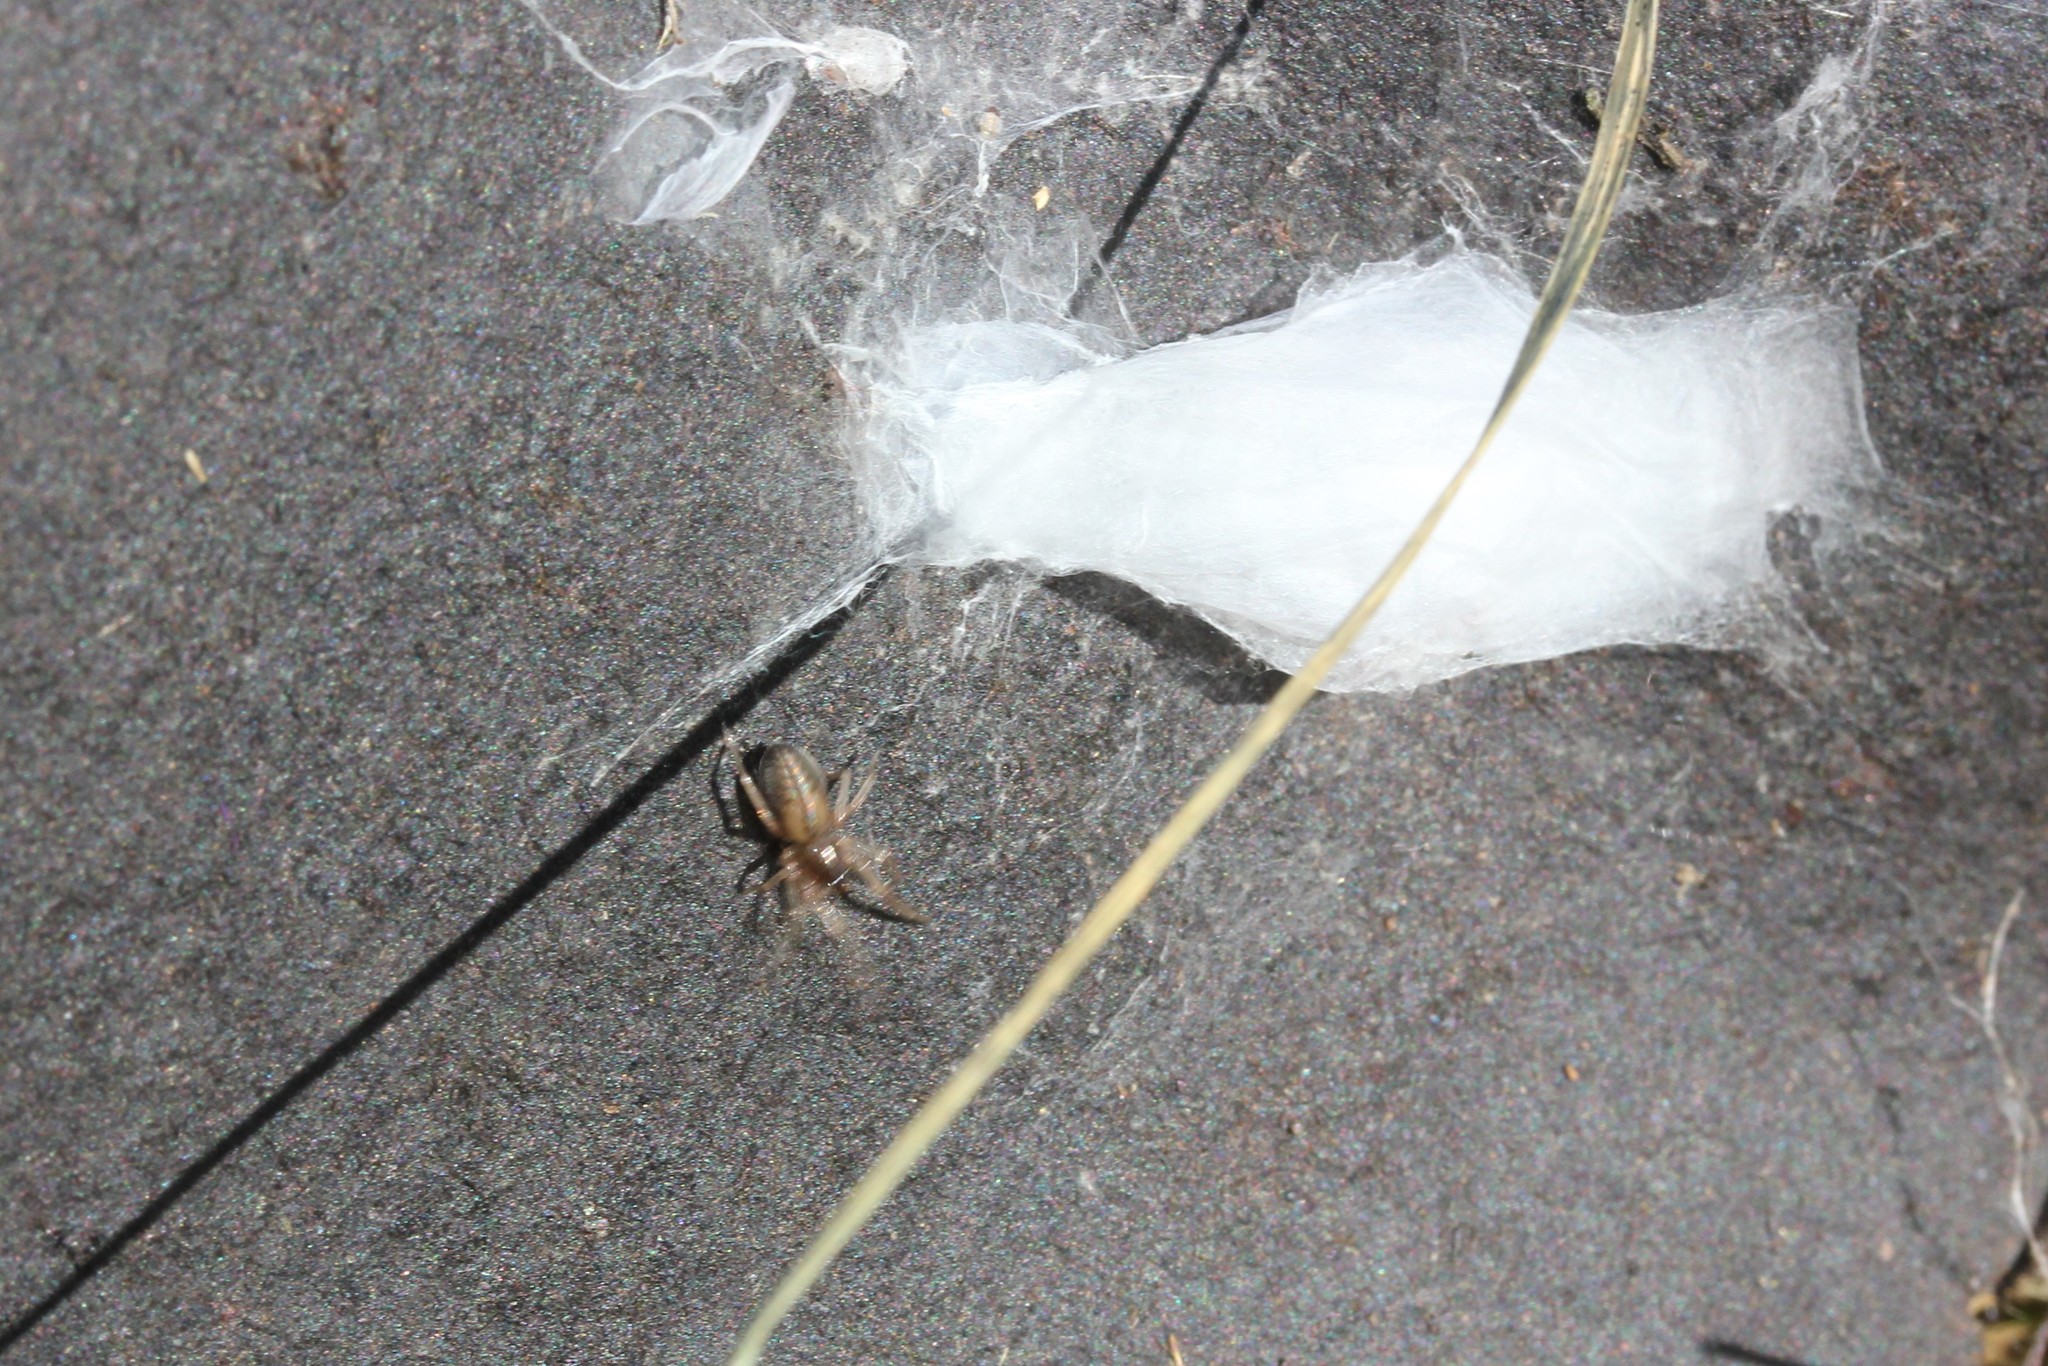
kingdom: Animalia
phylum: Arthropoda
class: Arachnida
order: Araneae
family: Trachelidae
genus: Meriola
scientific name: Meriola decepta
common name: Corinnid sac spiders
